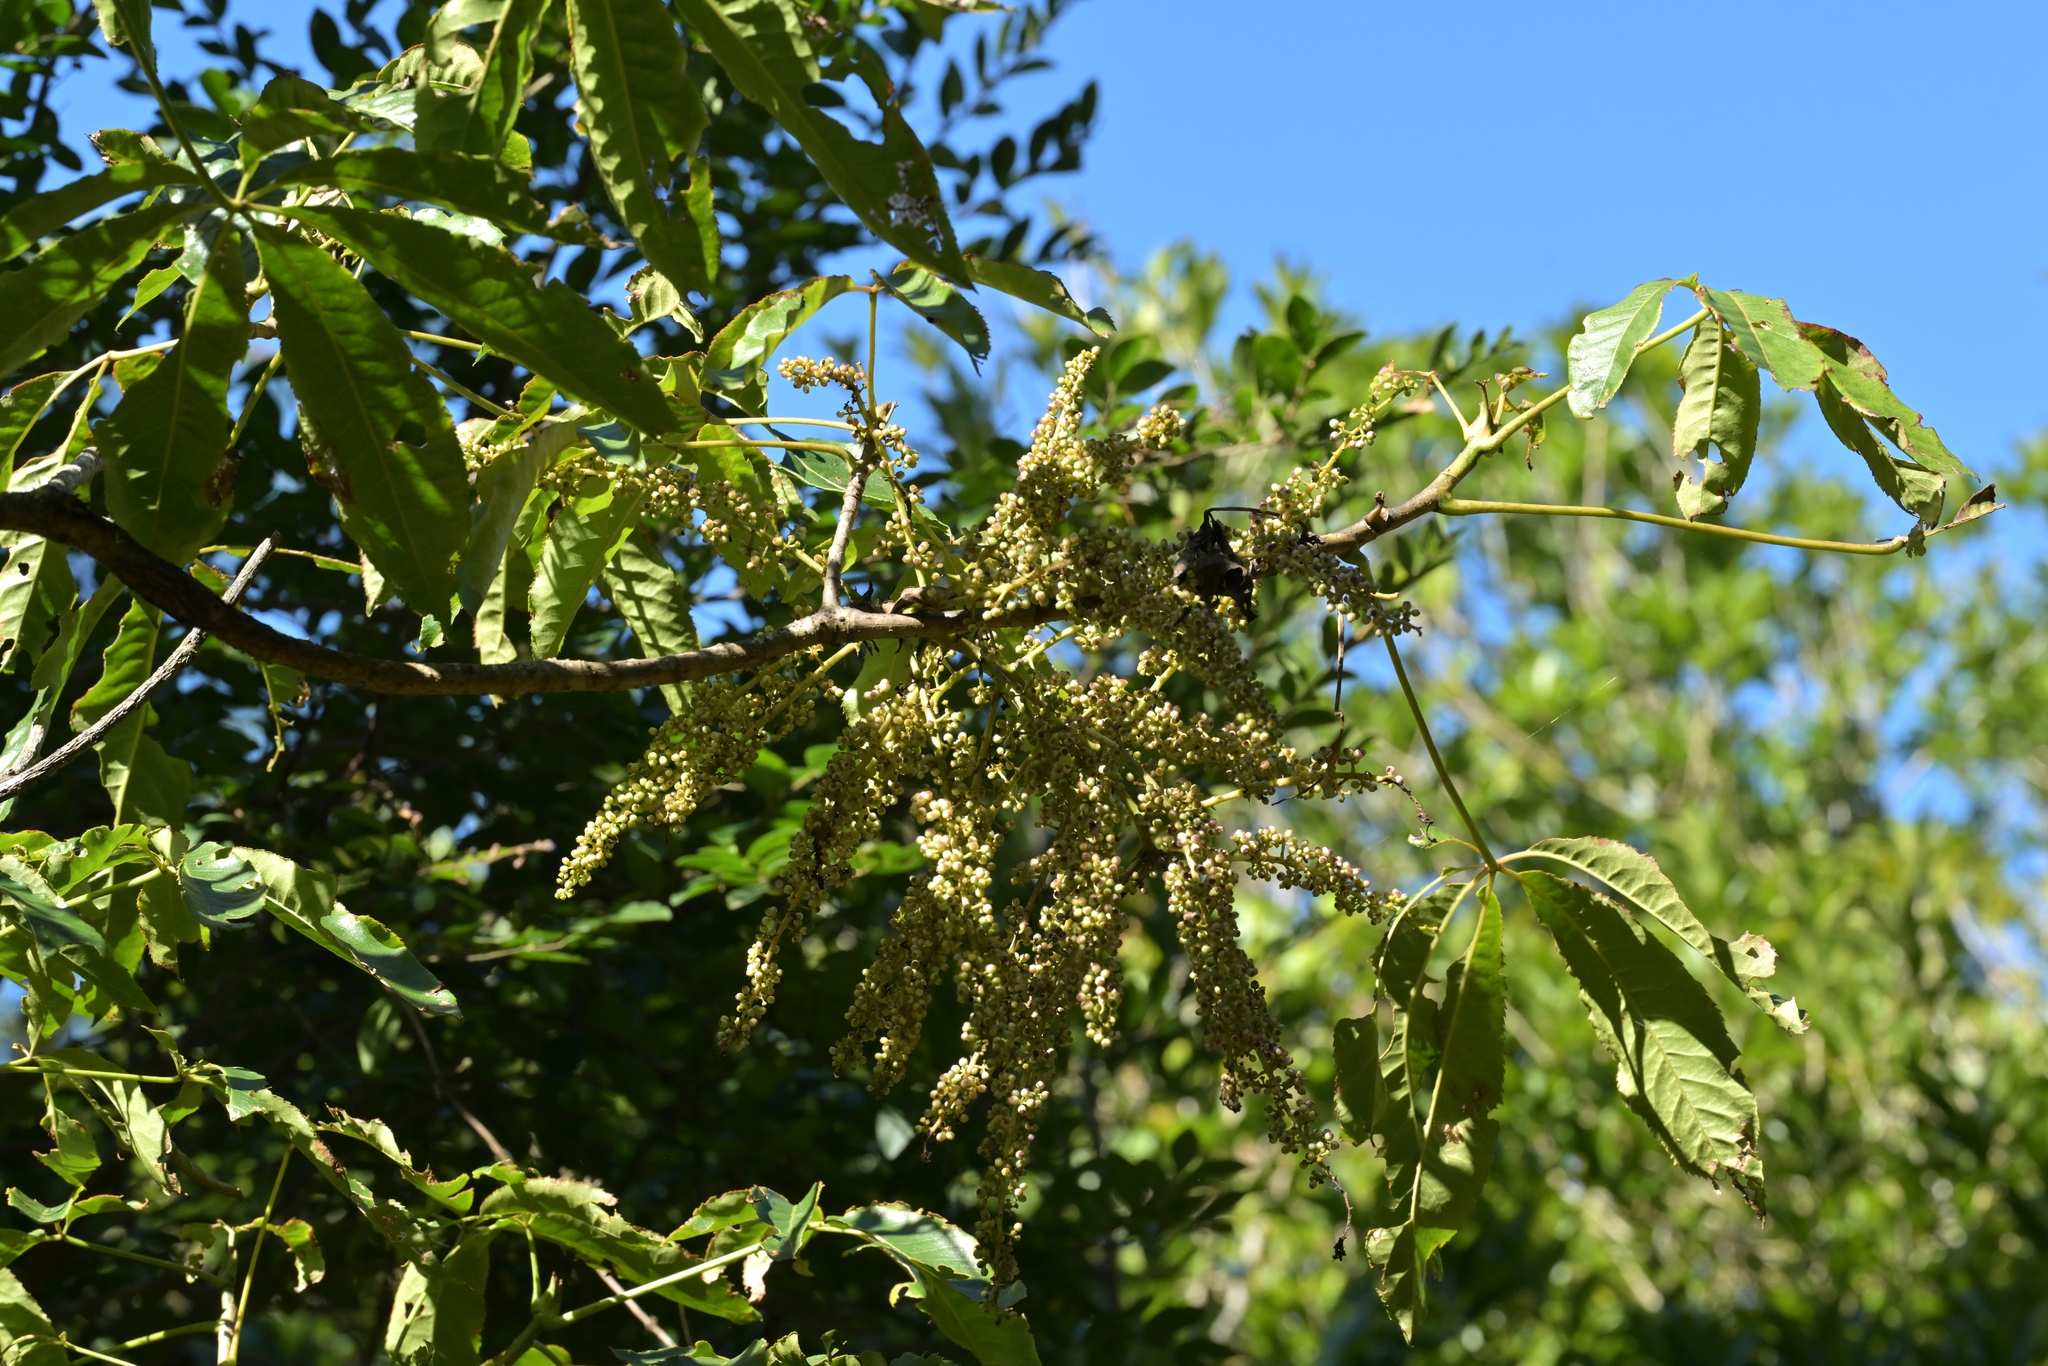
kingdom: Plantae
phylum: Tracheophyta
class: Magnoliopsida
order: Apiales
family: Araliaceae
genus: Schefflera
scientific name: Schefflera digitata
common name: Pate
